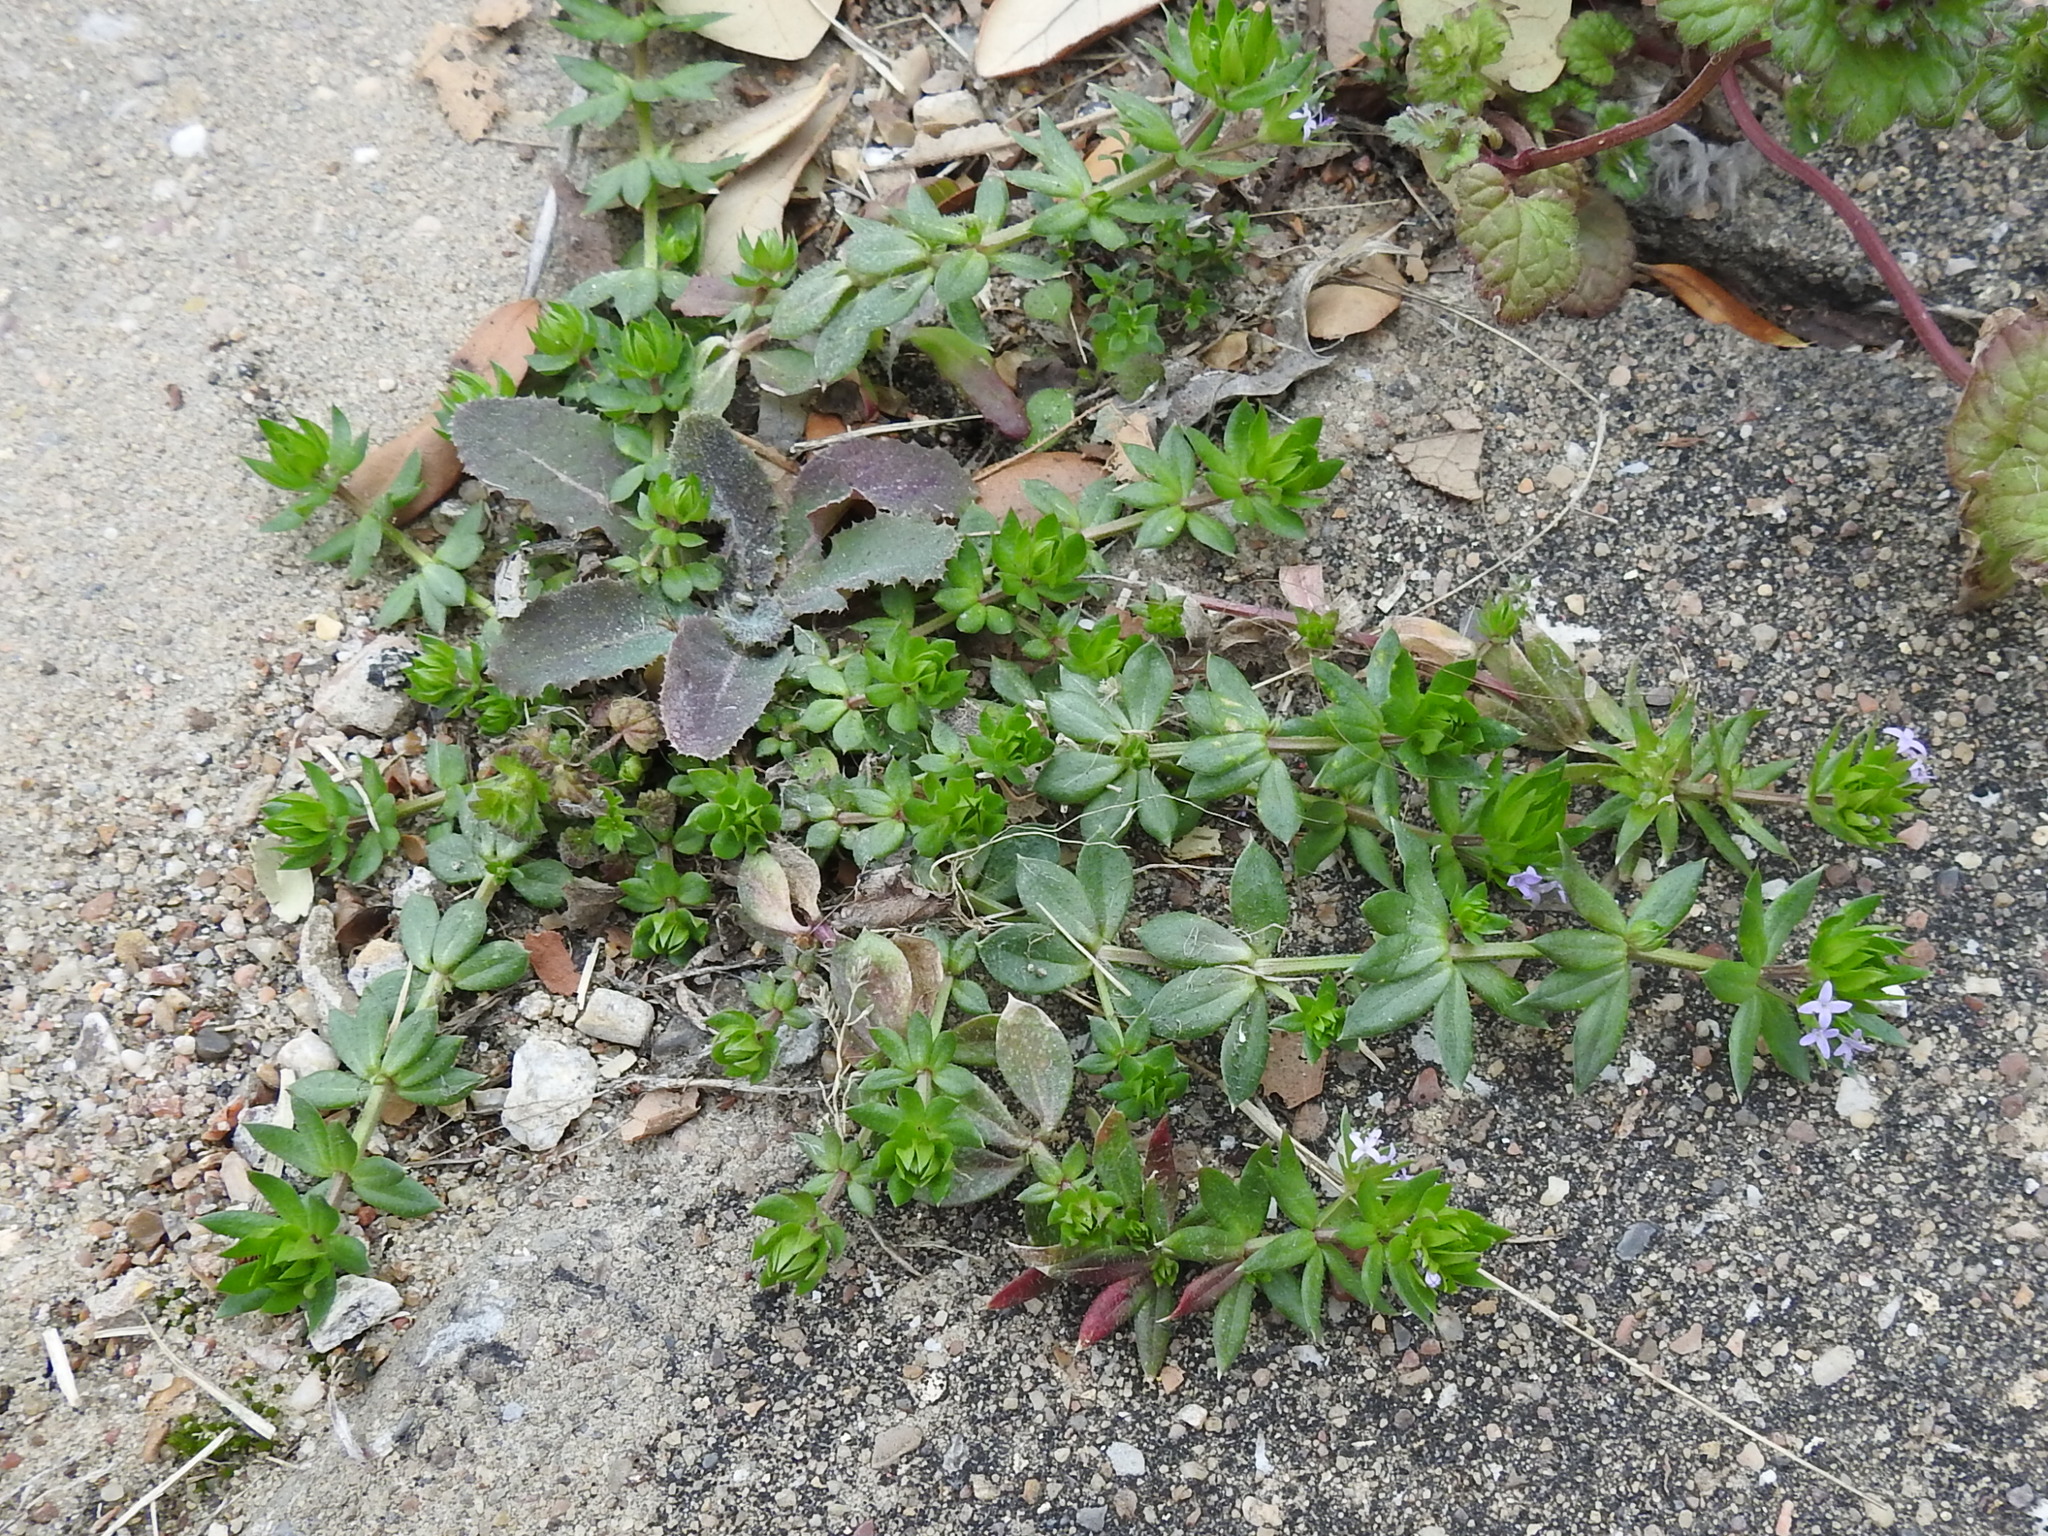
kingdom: Plantae
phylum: Tracheophyta
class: Magnoliopsida
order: Gentianales
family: Rubiaceae
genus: Sherardia
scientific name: Sherardia arvensis
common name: Field madder
